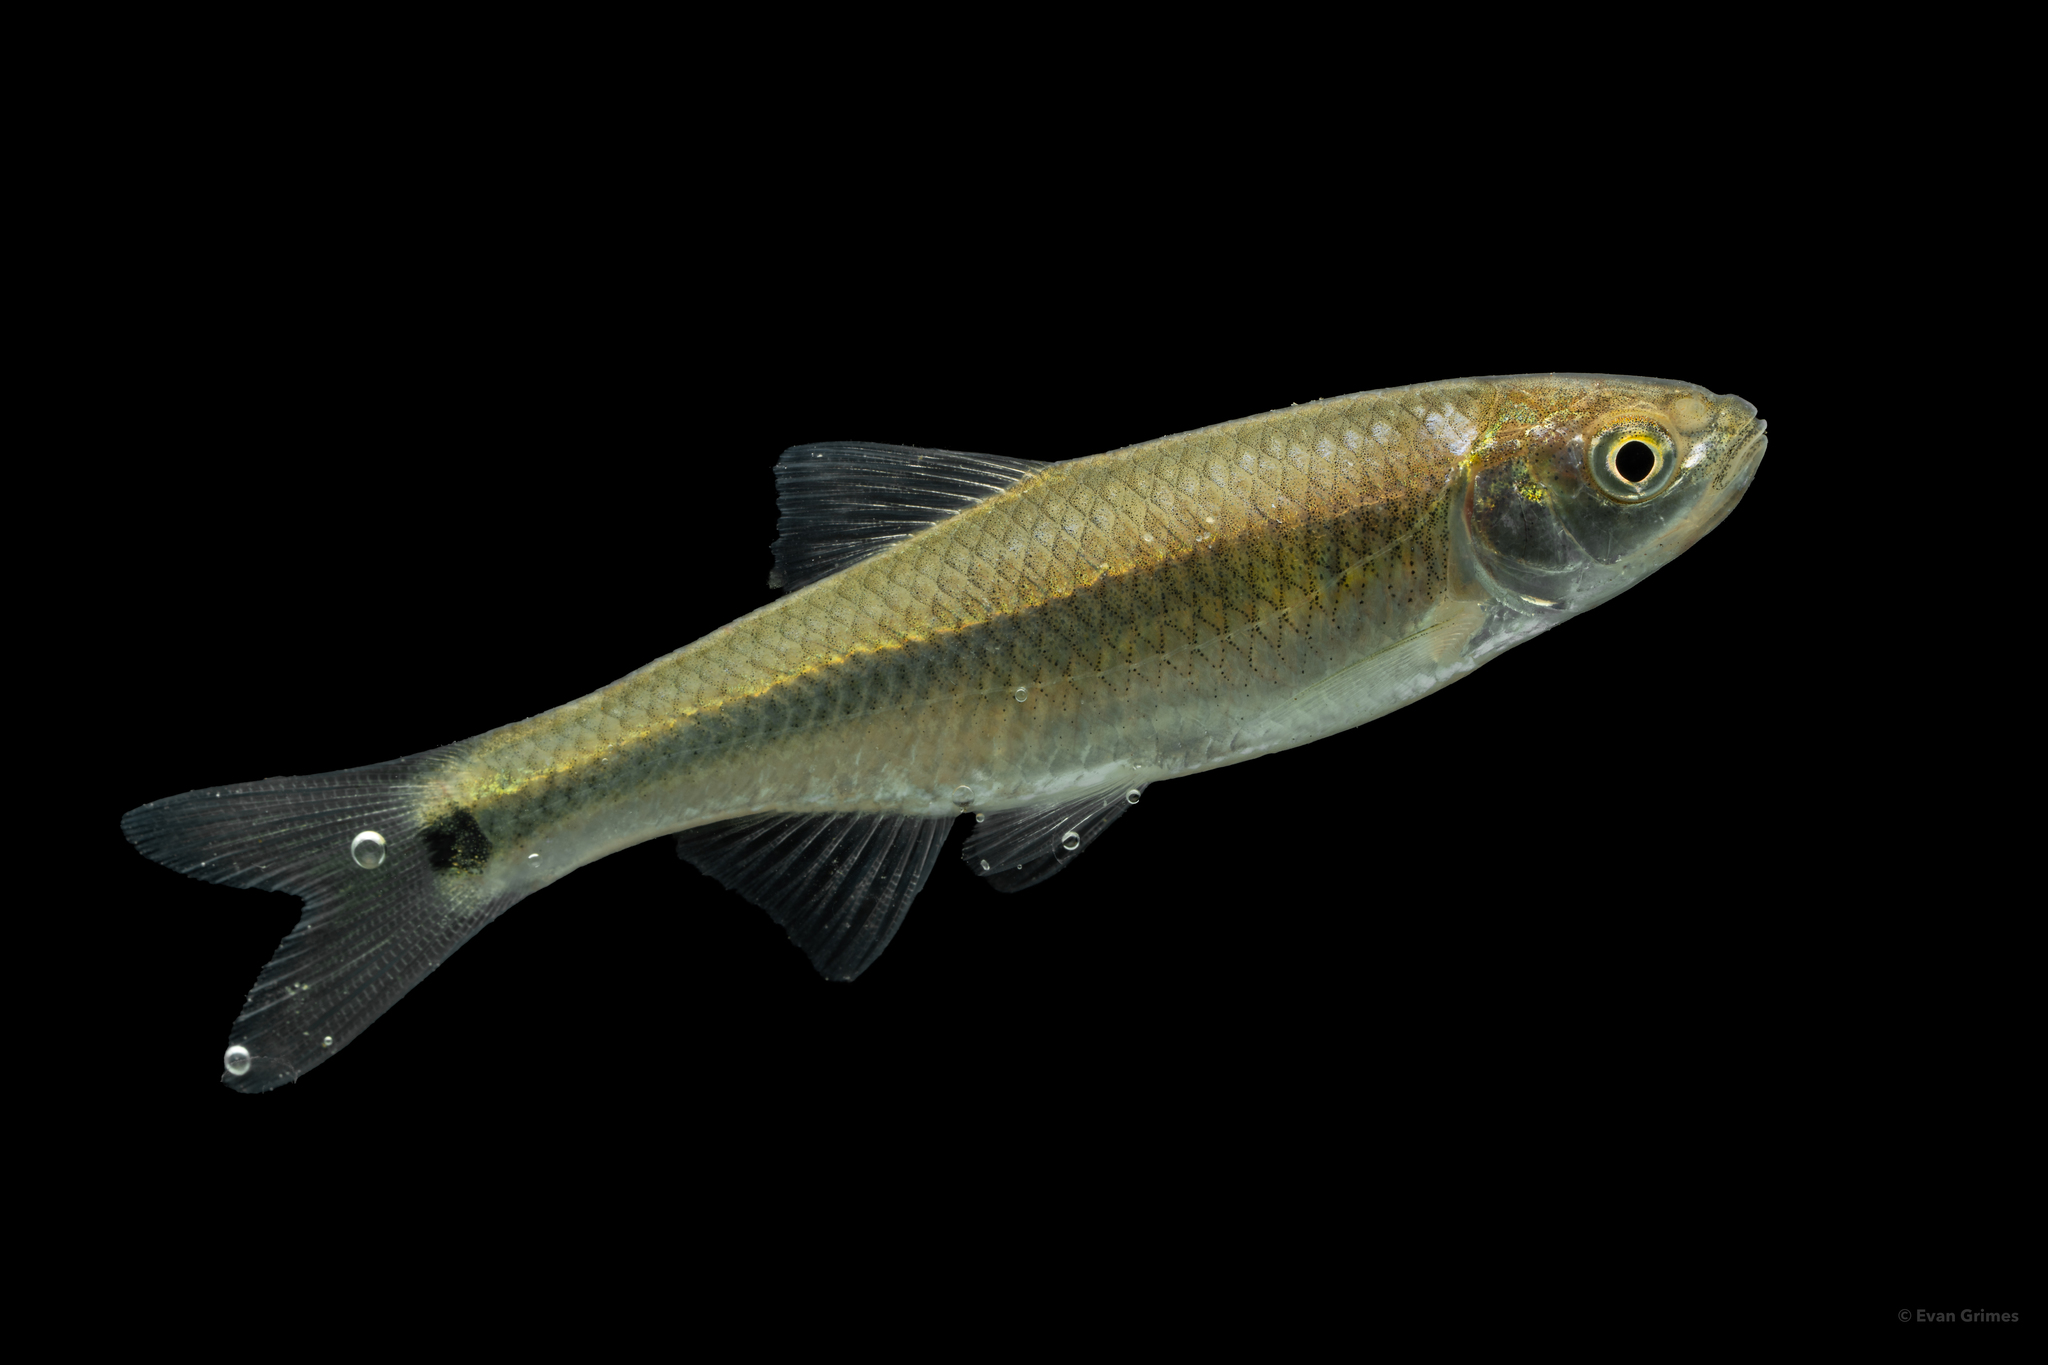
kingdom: Animalia
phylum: Chordata
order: Cypriniformes
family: Cyprinidae
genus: Cyprinella
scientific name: Cyprinella venusta
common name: Blacktail shiner
